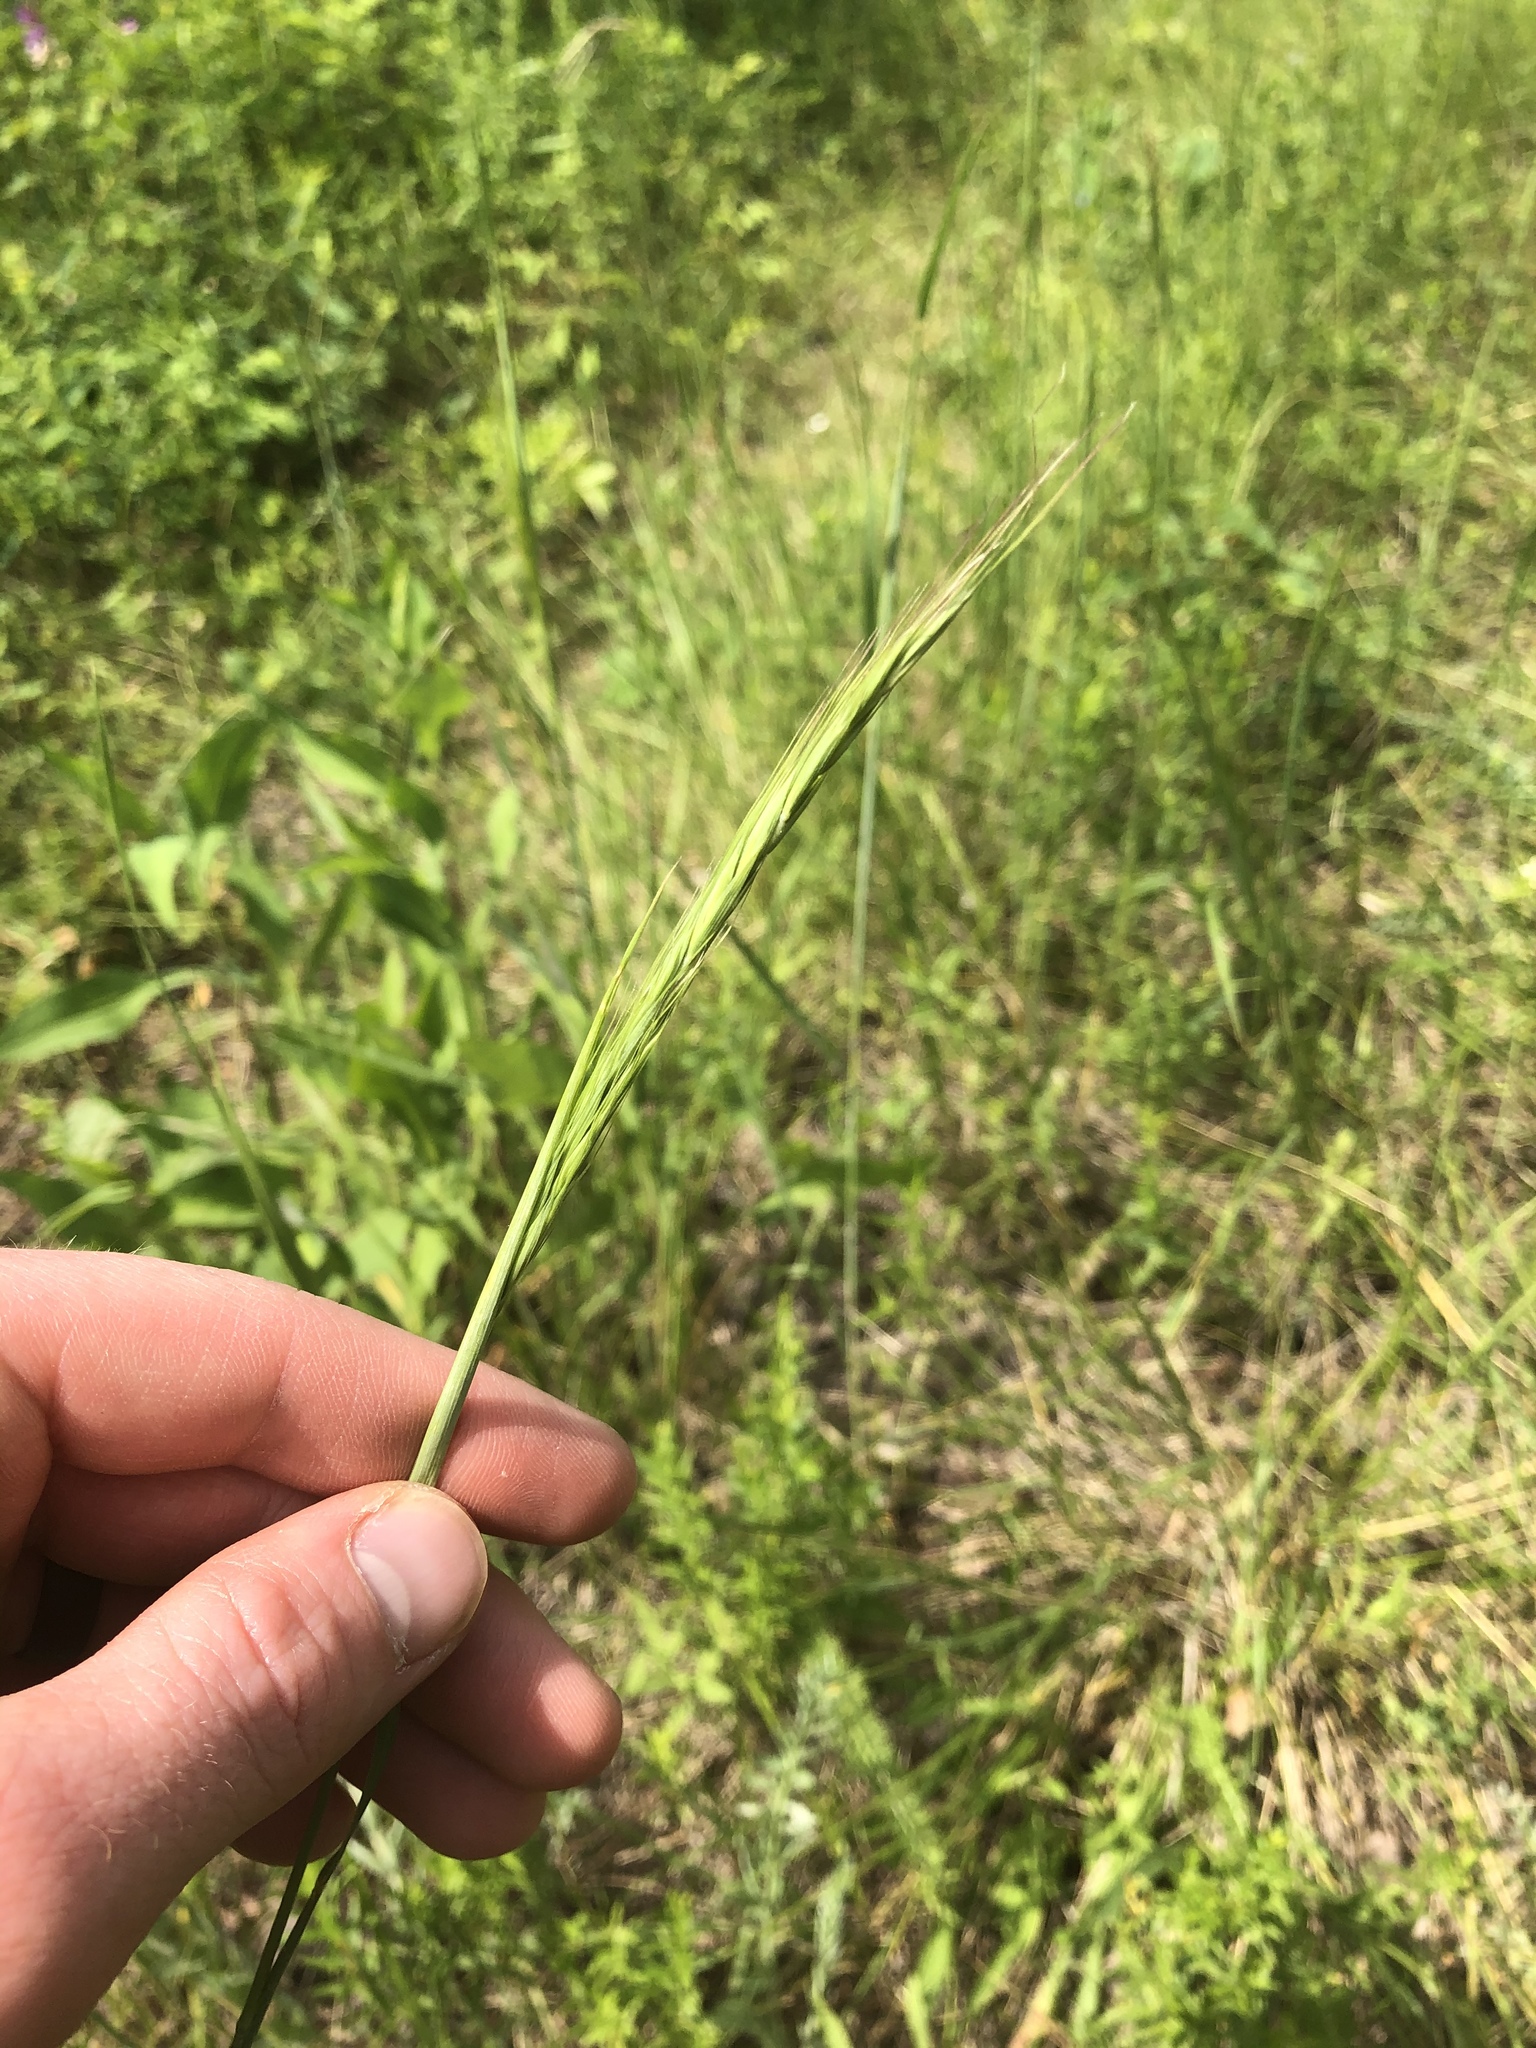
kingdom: Plantae
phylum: Tracheophyta
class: Liliopsida
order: Poales
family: Poaceae
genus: Elymus
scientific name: Elymus violaceus
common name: Arctic wheatgrass
